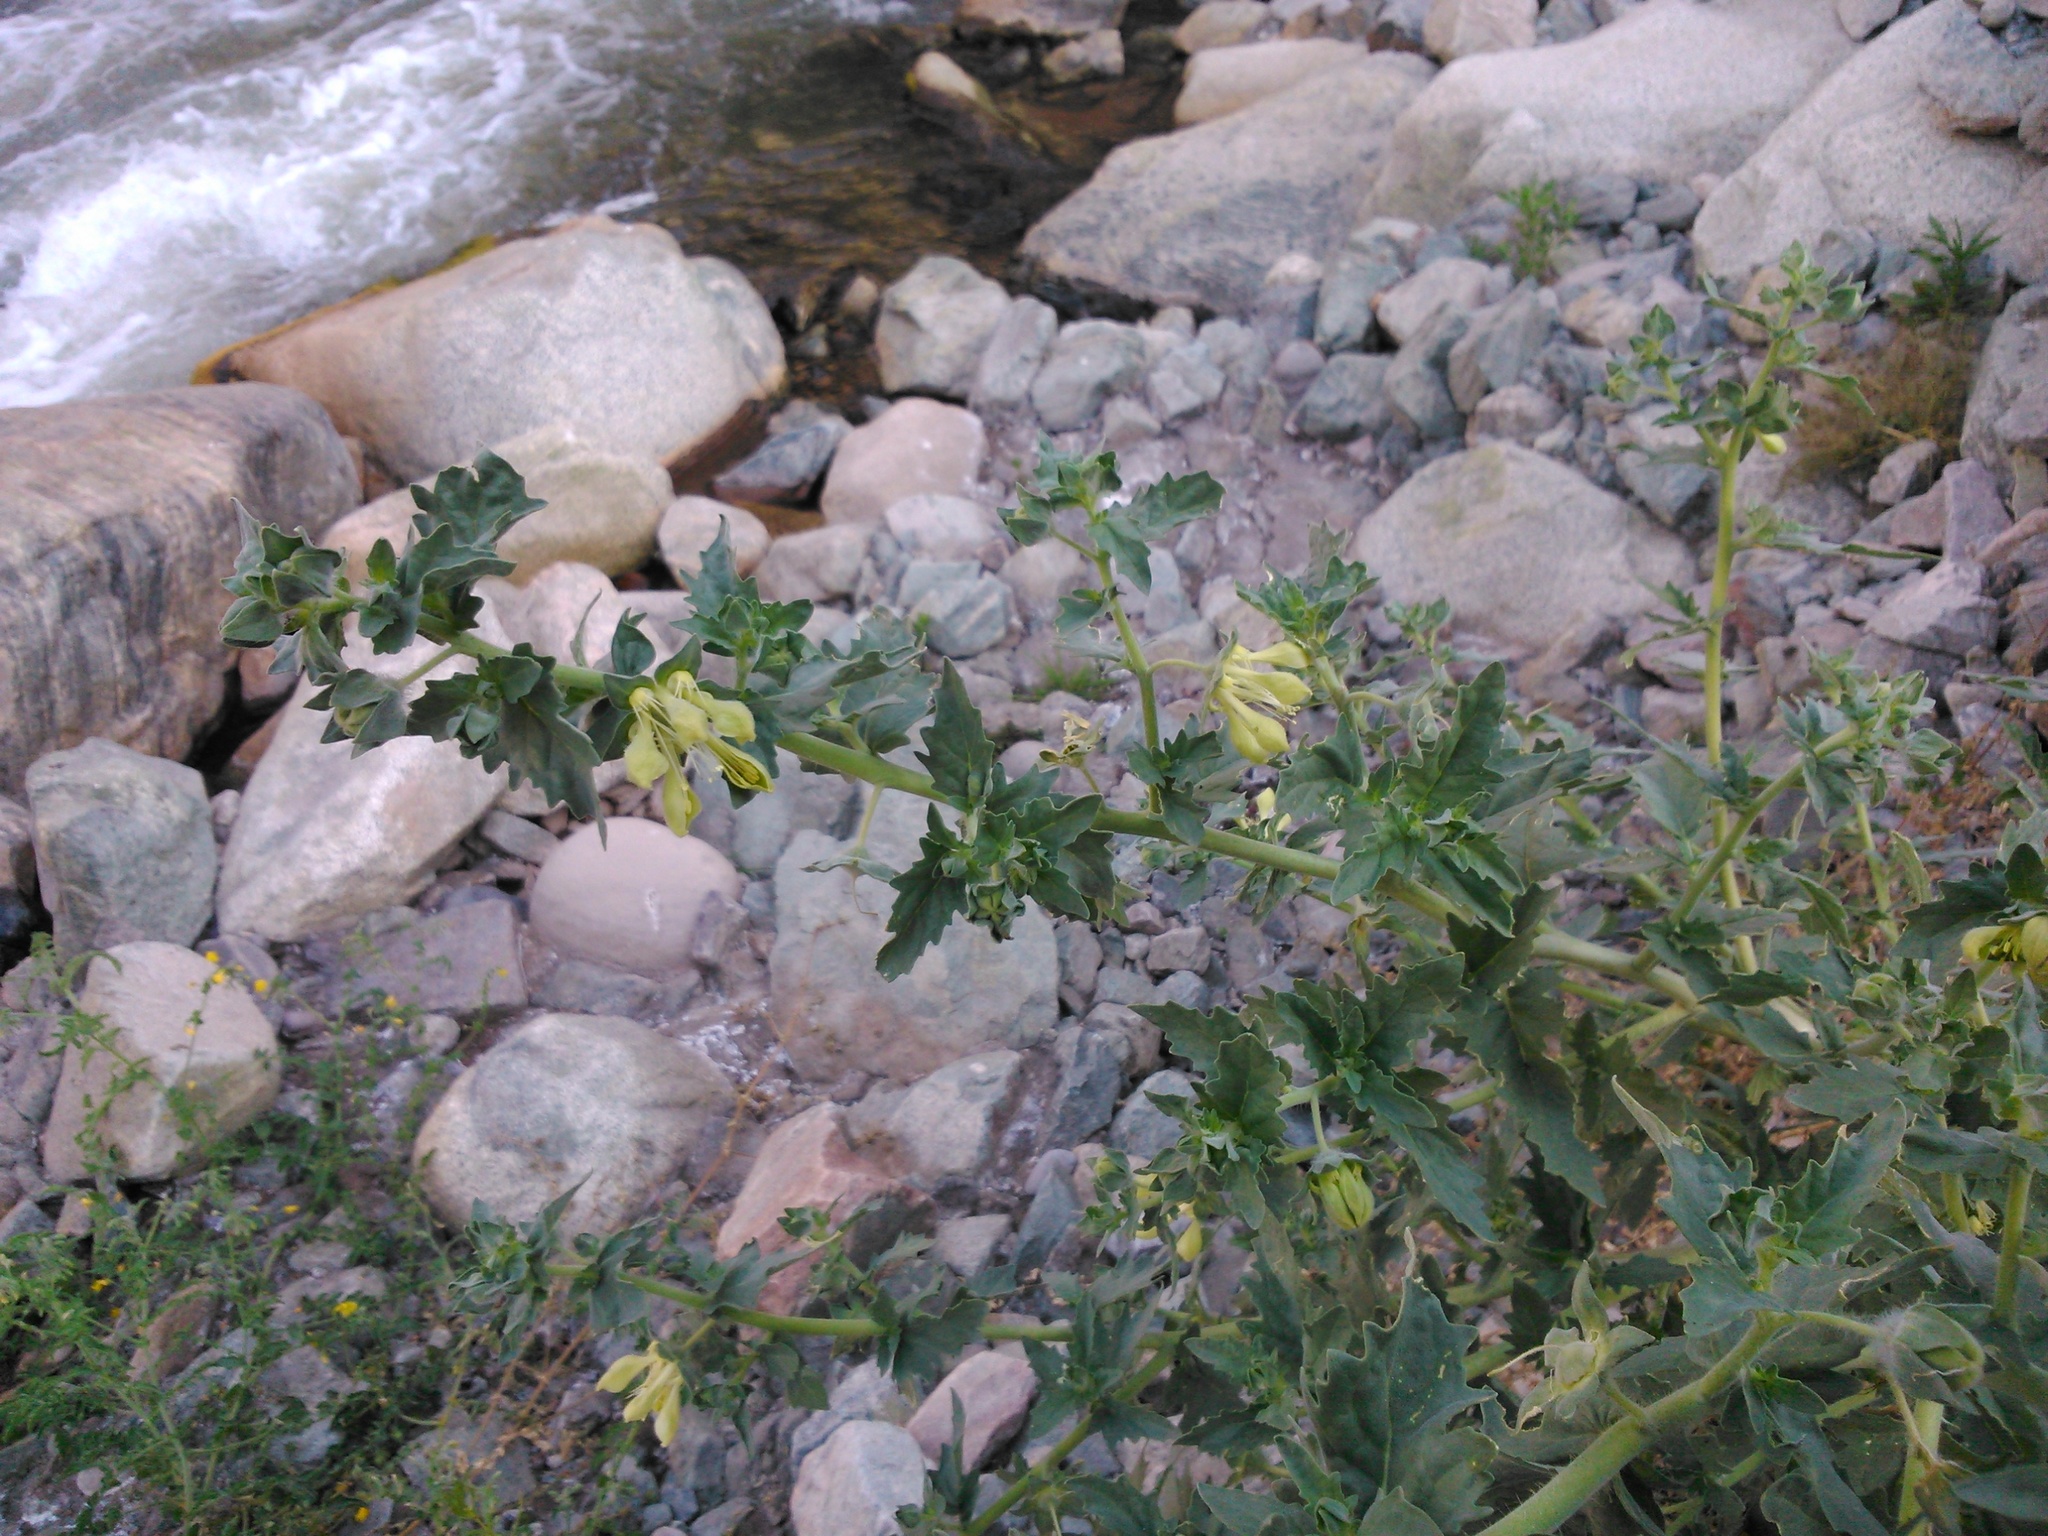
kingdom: Plantae
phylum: Tracheophyta
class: Magnoliopsida
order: Cornales
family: Loasaceae
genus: Presliophytum
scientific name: Presliophytum incanum
